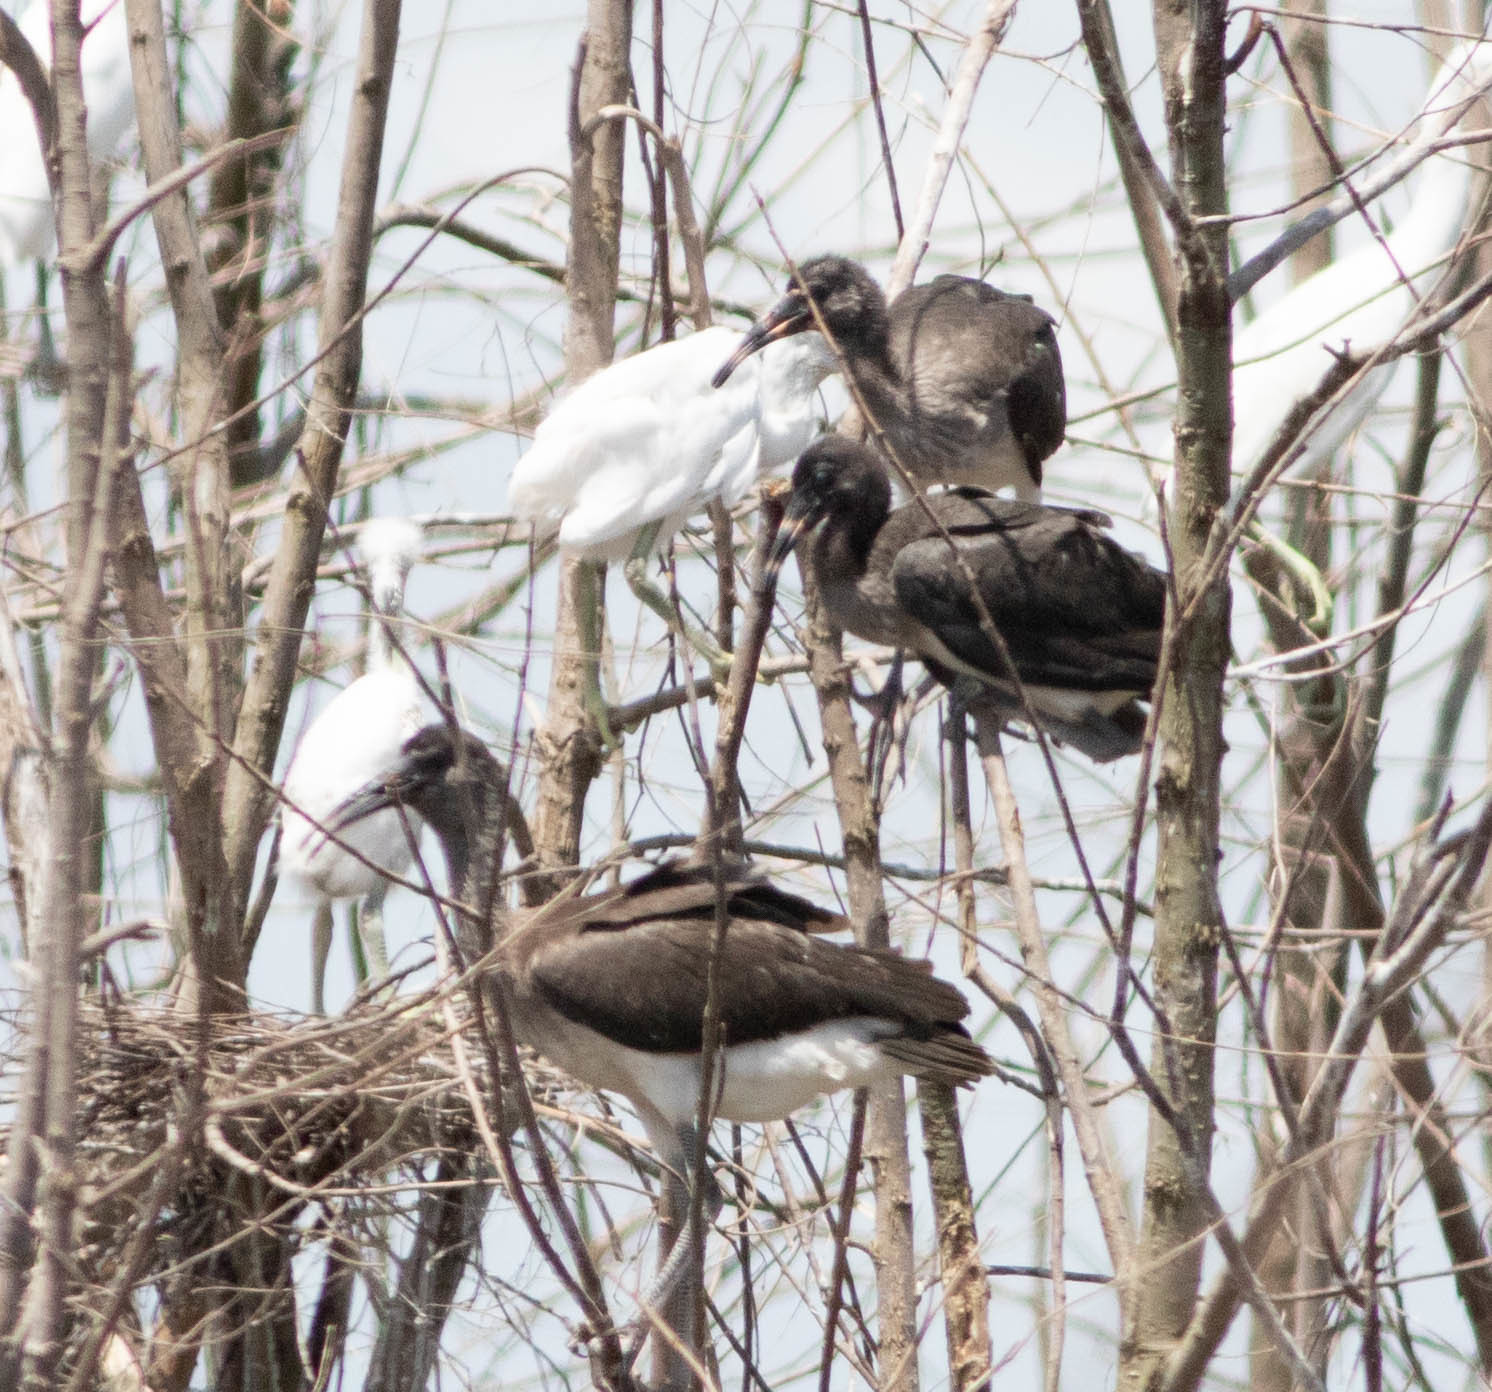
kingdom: Animalia
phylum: Chordata
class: Aves
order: Pelecaniformes
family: Threskiornithidae
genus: Eudocimus
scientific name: Eudocimus albus
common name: White ibis
